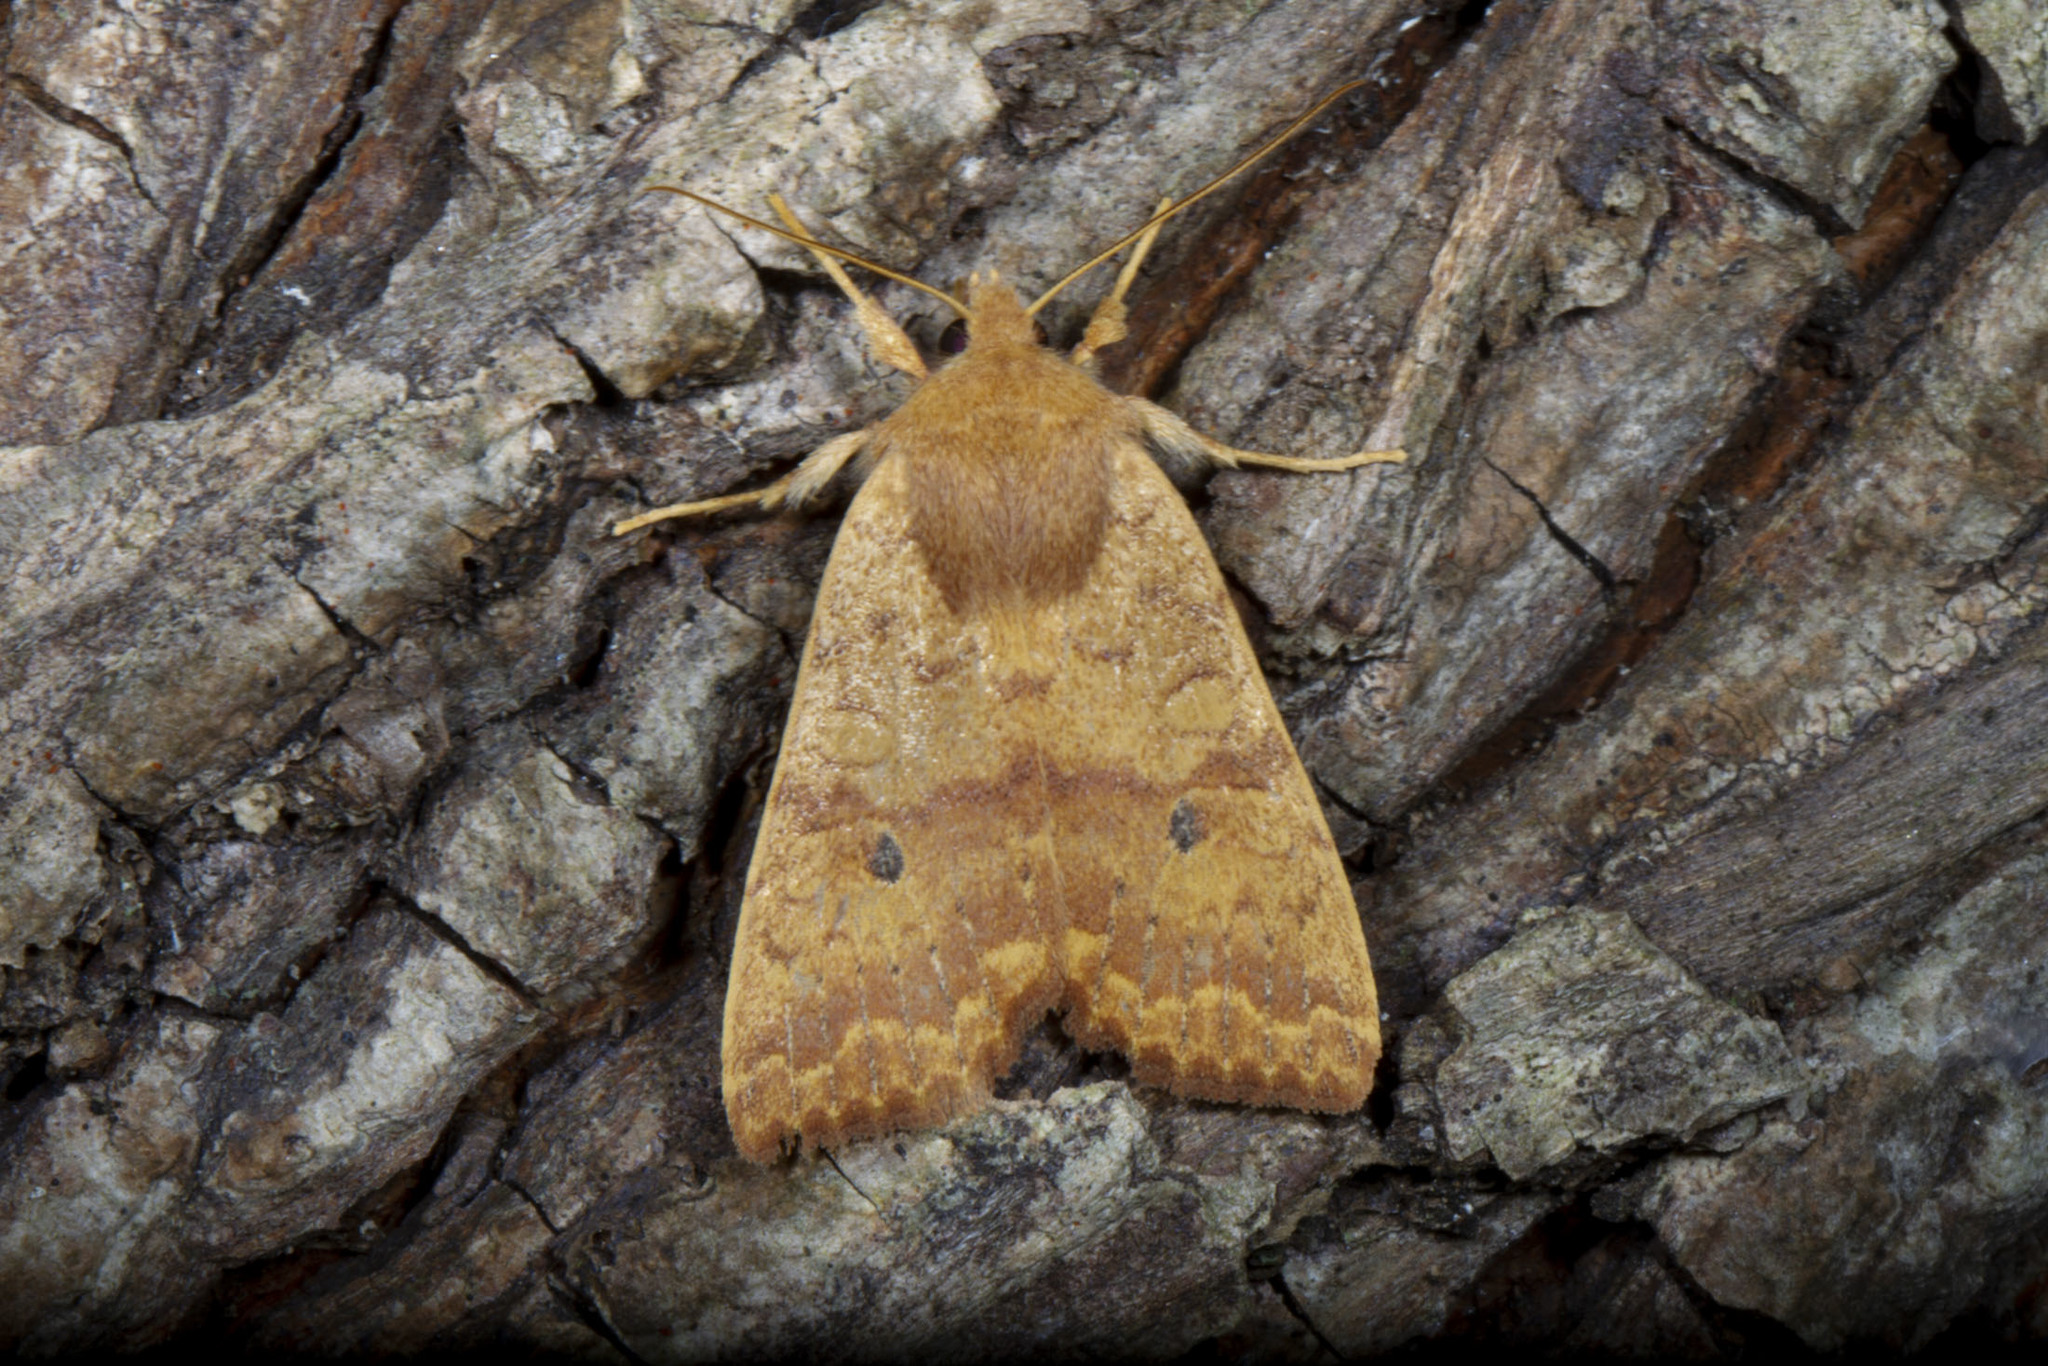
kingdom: Animalia
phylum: Arthropoda
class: Insecta
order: Lepidoptera
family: Noctuidae
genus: Agrochola
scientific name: Agrochola bicolorago
